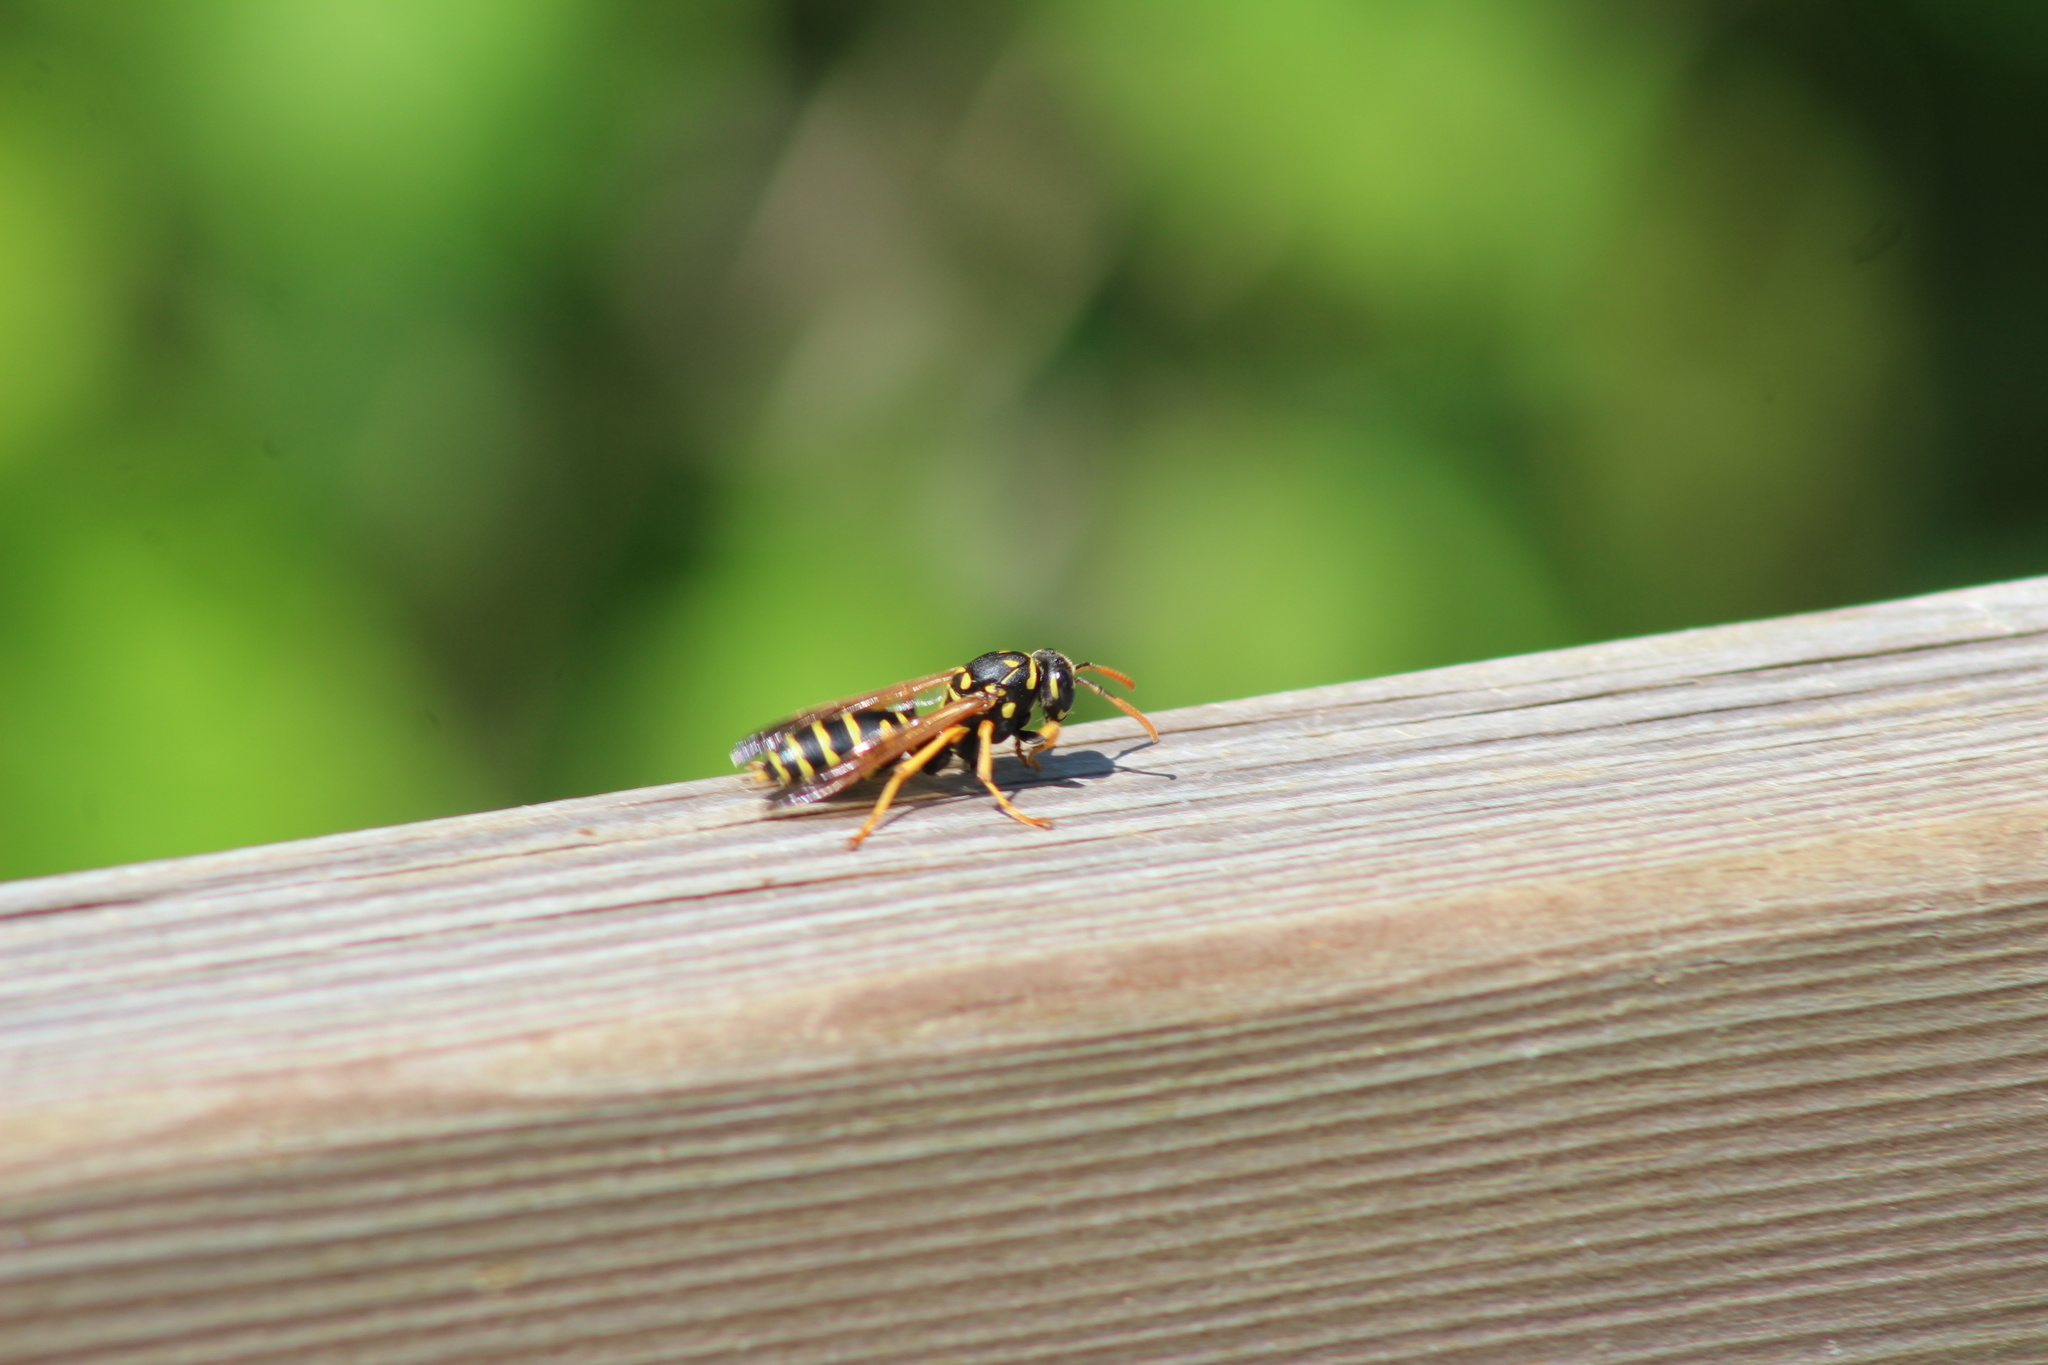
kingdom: Animalia
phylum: Arthropoda
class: Insecta
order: Hymenoptera
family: Eumenidae
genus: Polistes
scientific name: Polistes dominula
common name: Paper wasp
